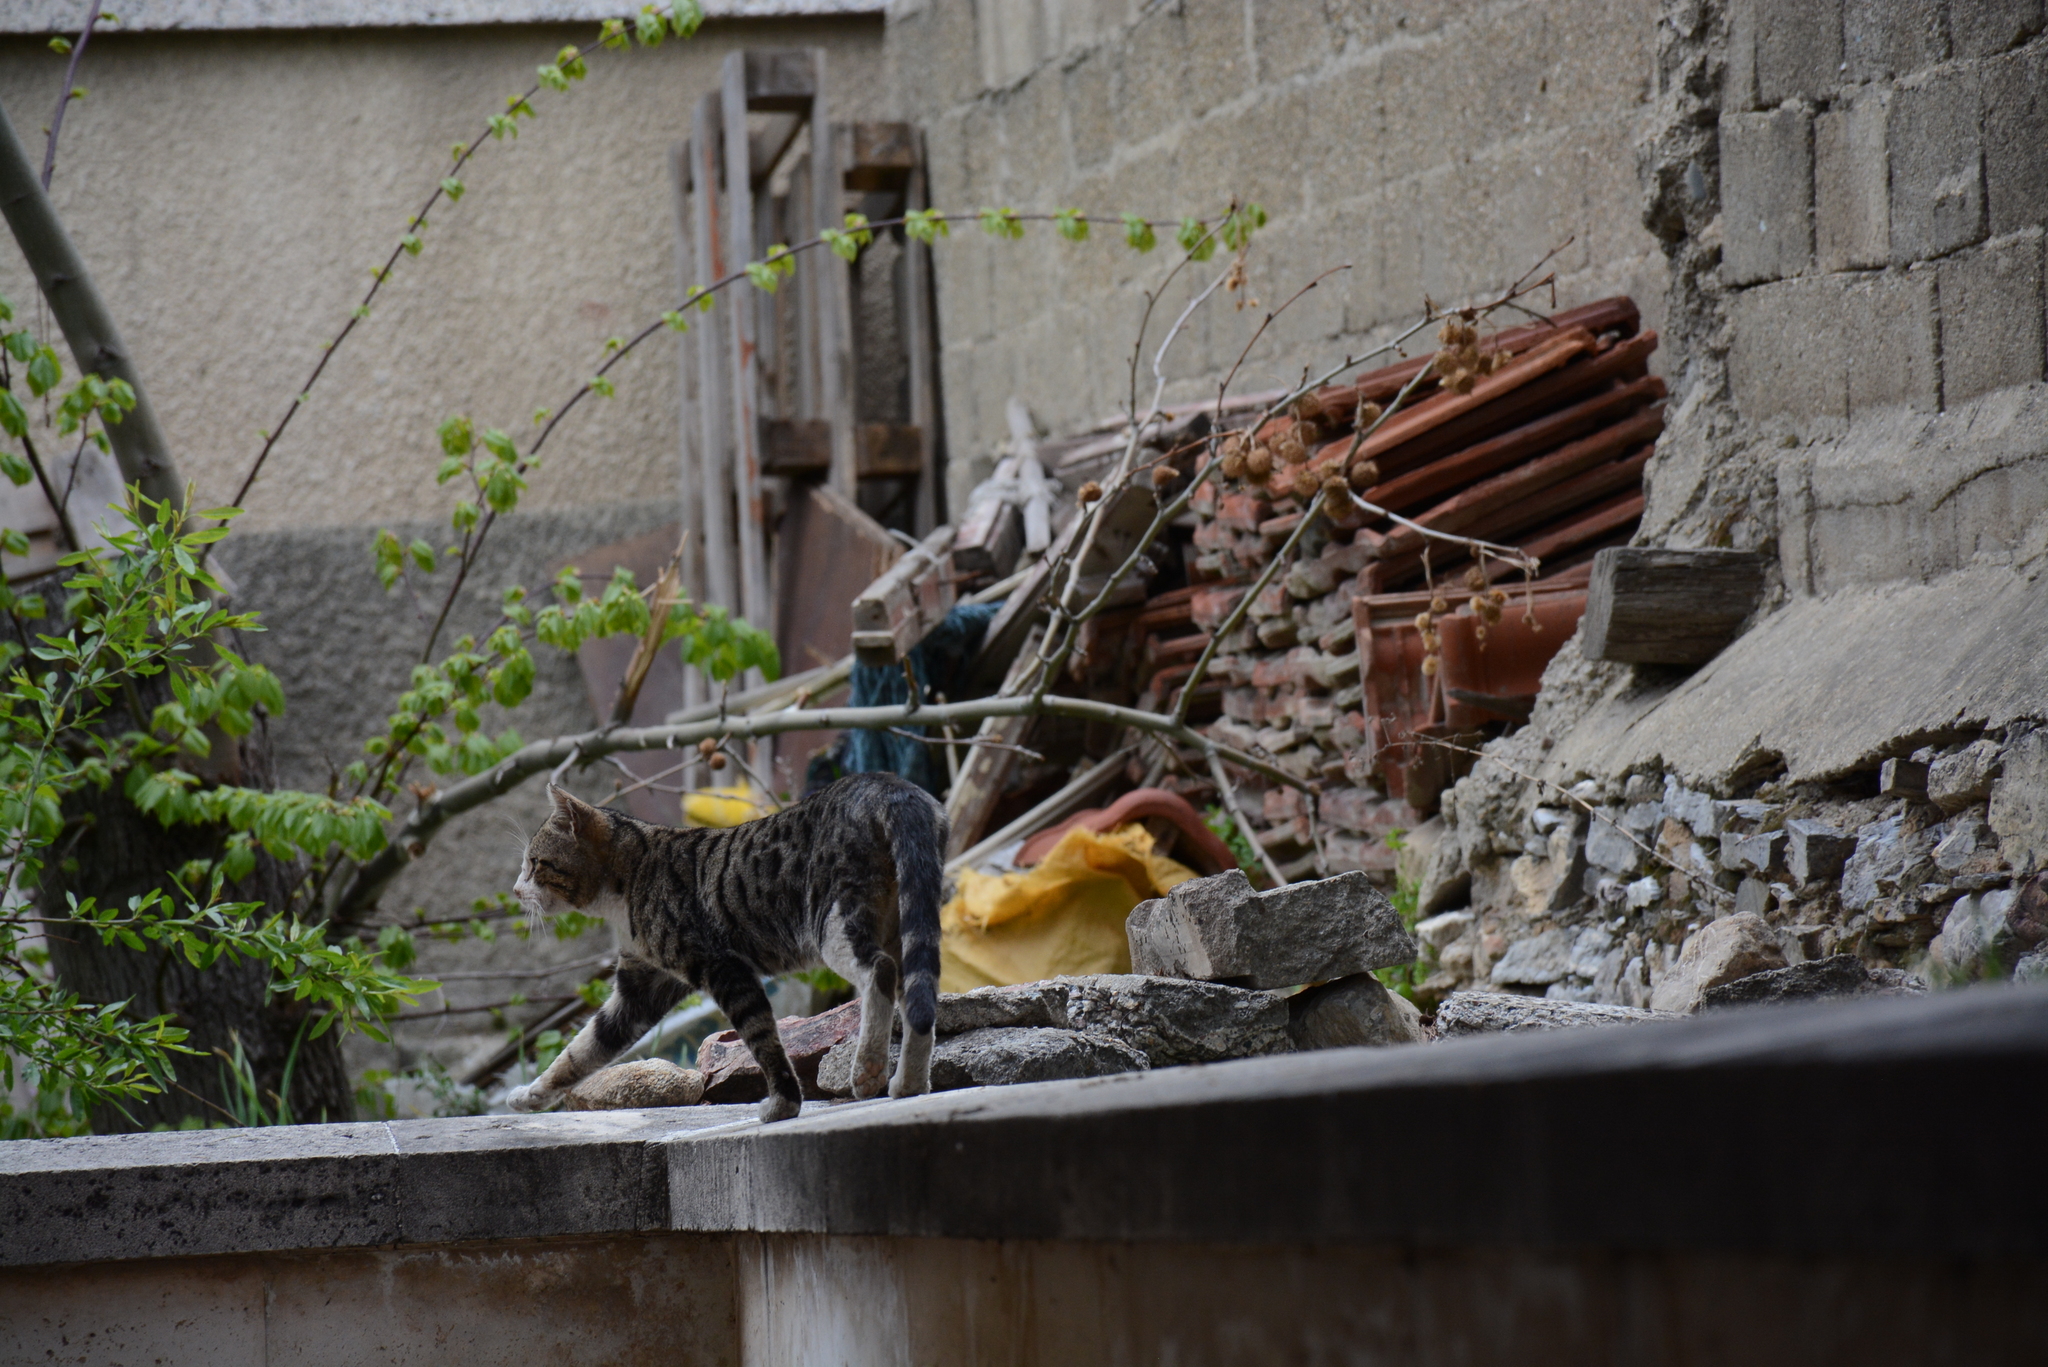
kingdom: Animalia
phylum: Chordata
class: Mammalia
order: Carnivora
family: Felidae
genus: Felis
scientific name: Felis catus
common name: Domestic cat
